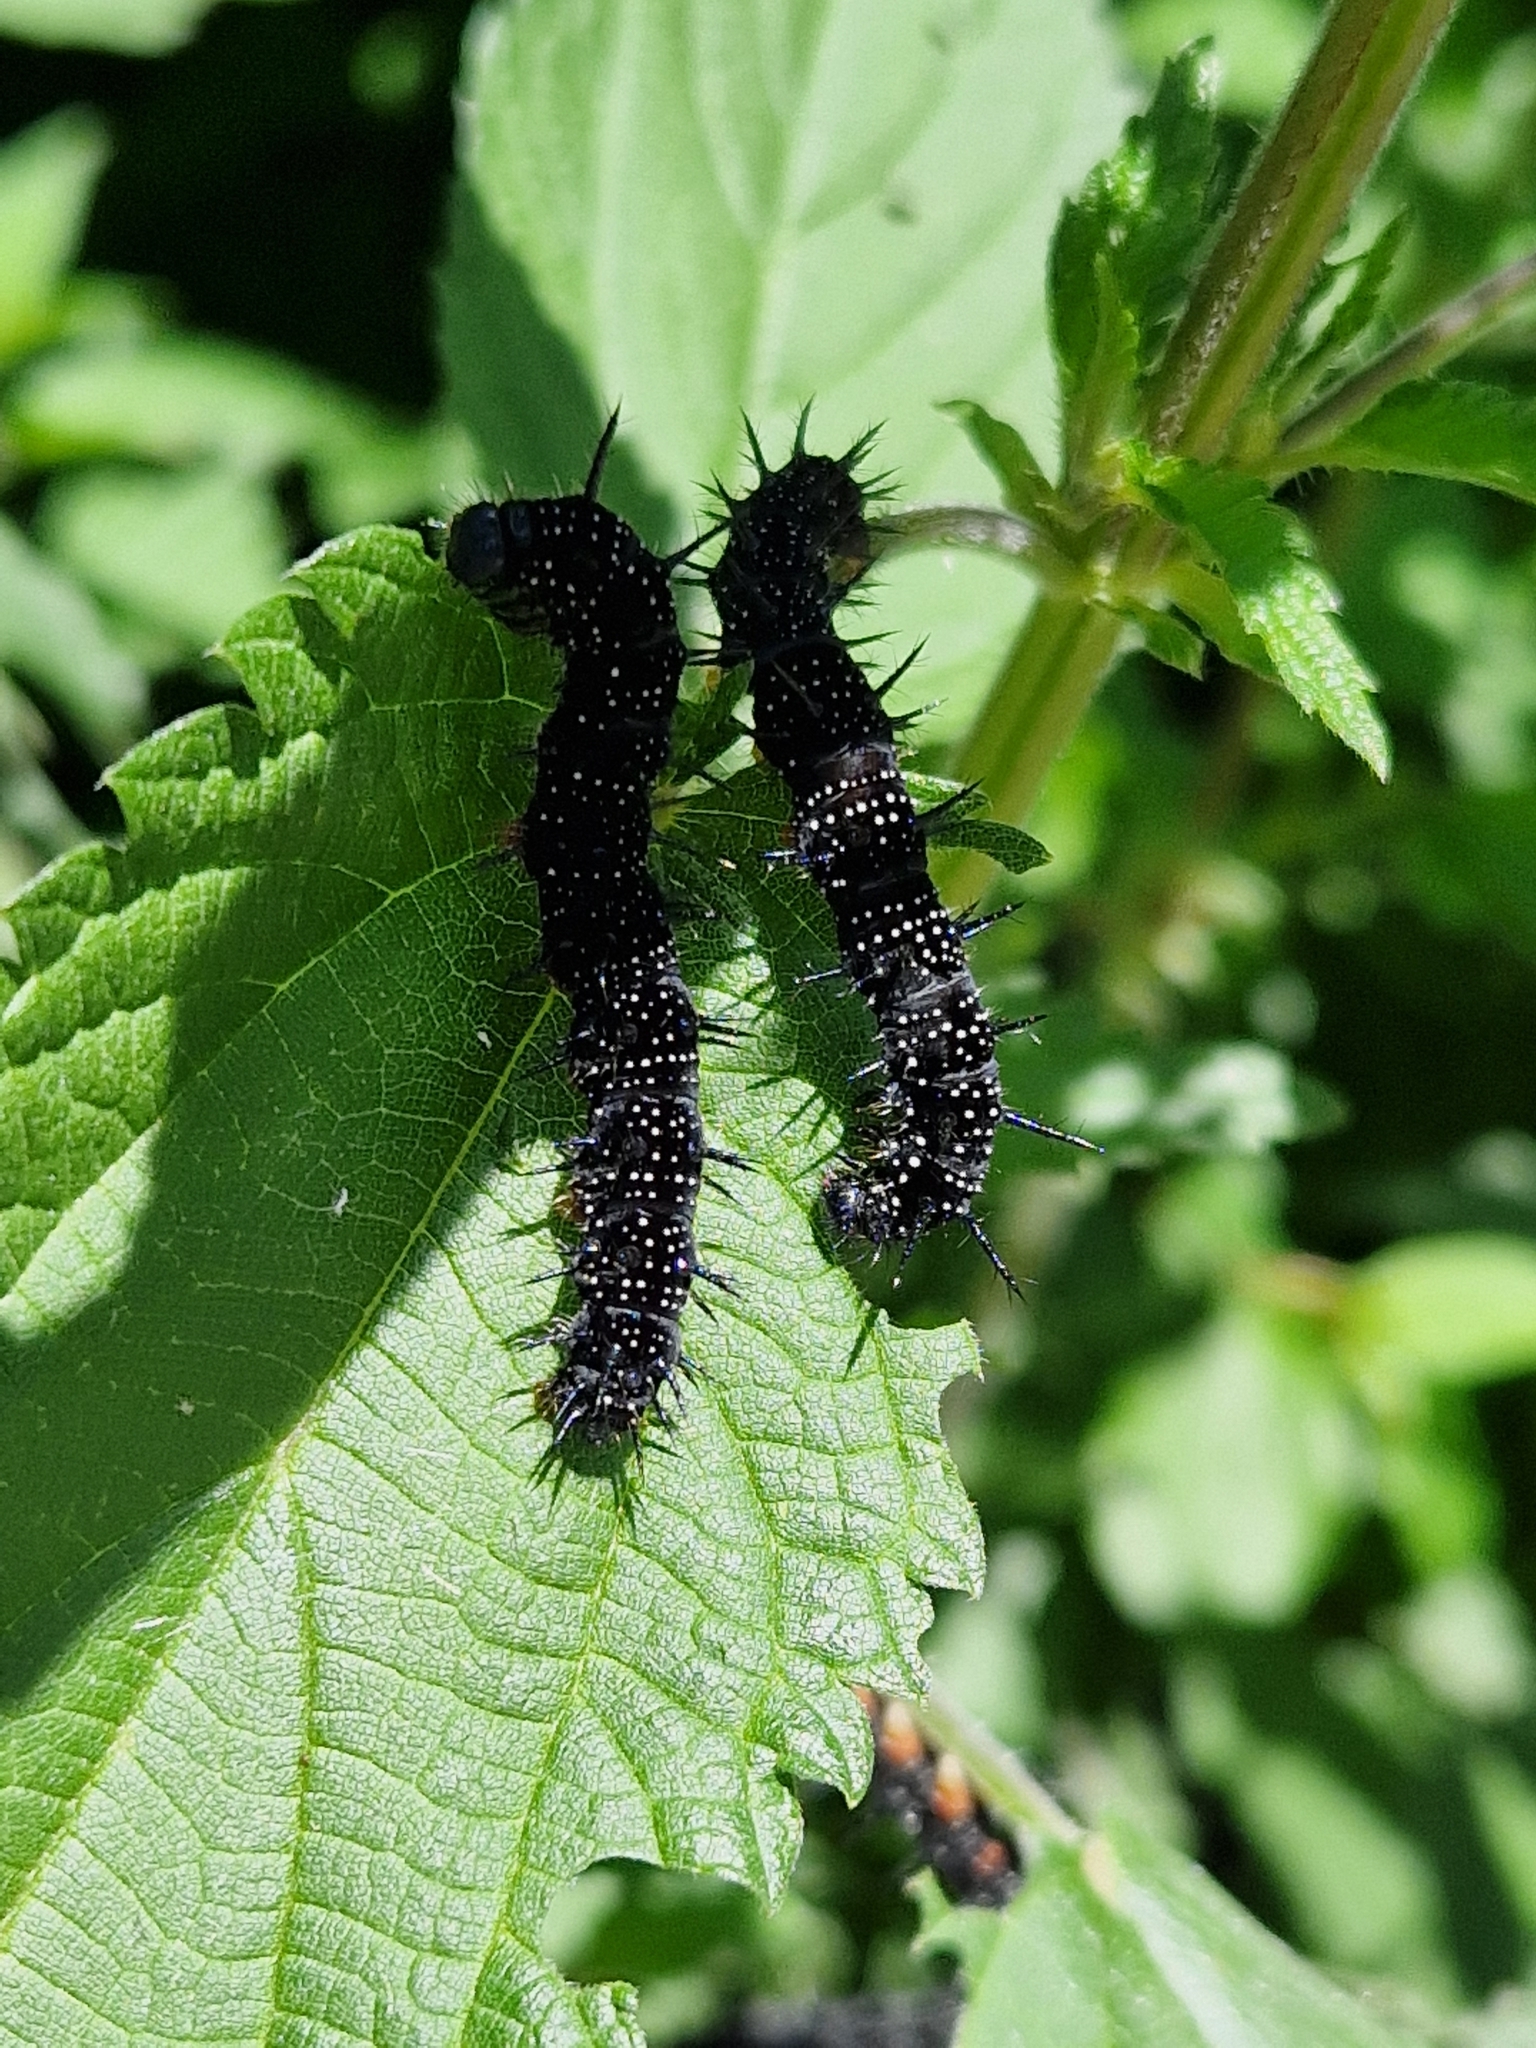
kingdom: Animalia
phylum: Arthropoda
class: Insecta
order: Lepidoptera
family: Nymphalidae
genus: Aglais
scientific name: Aglais io
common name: Peacock
